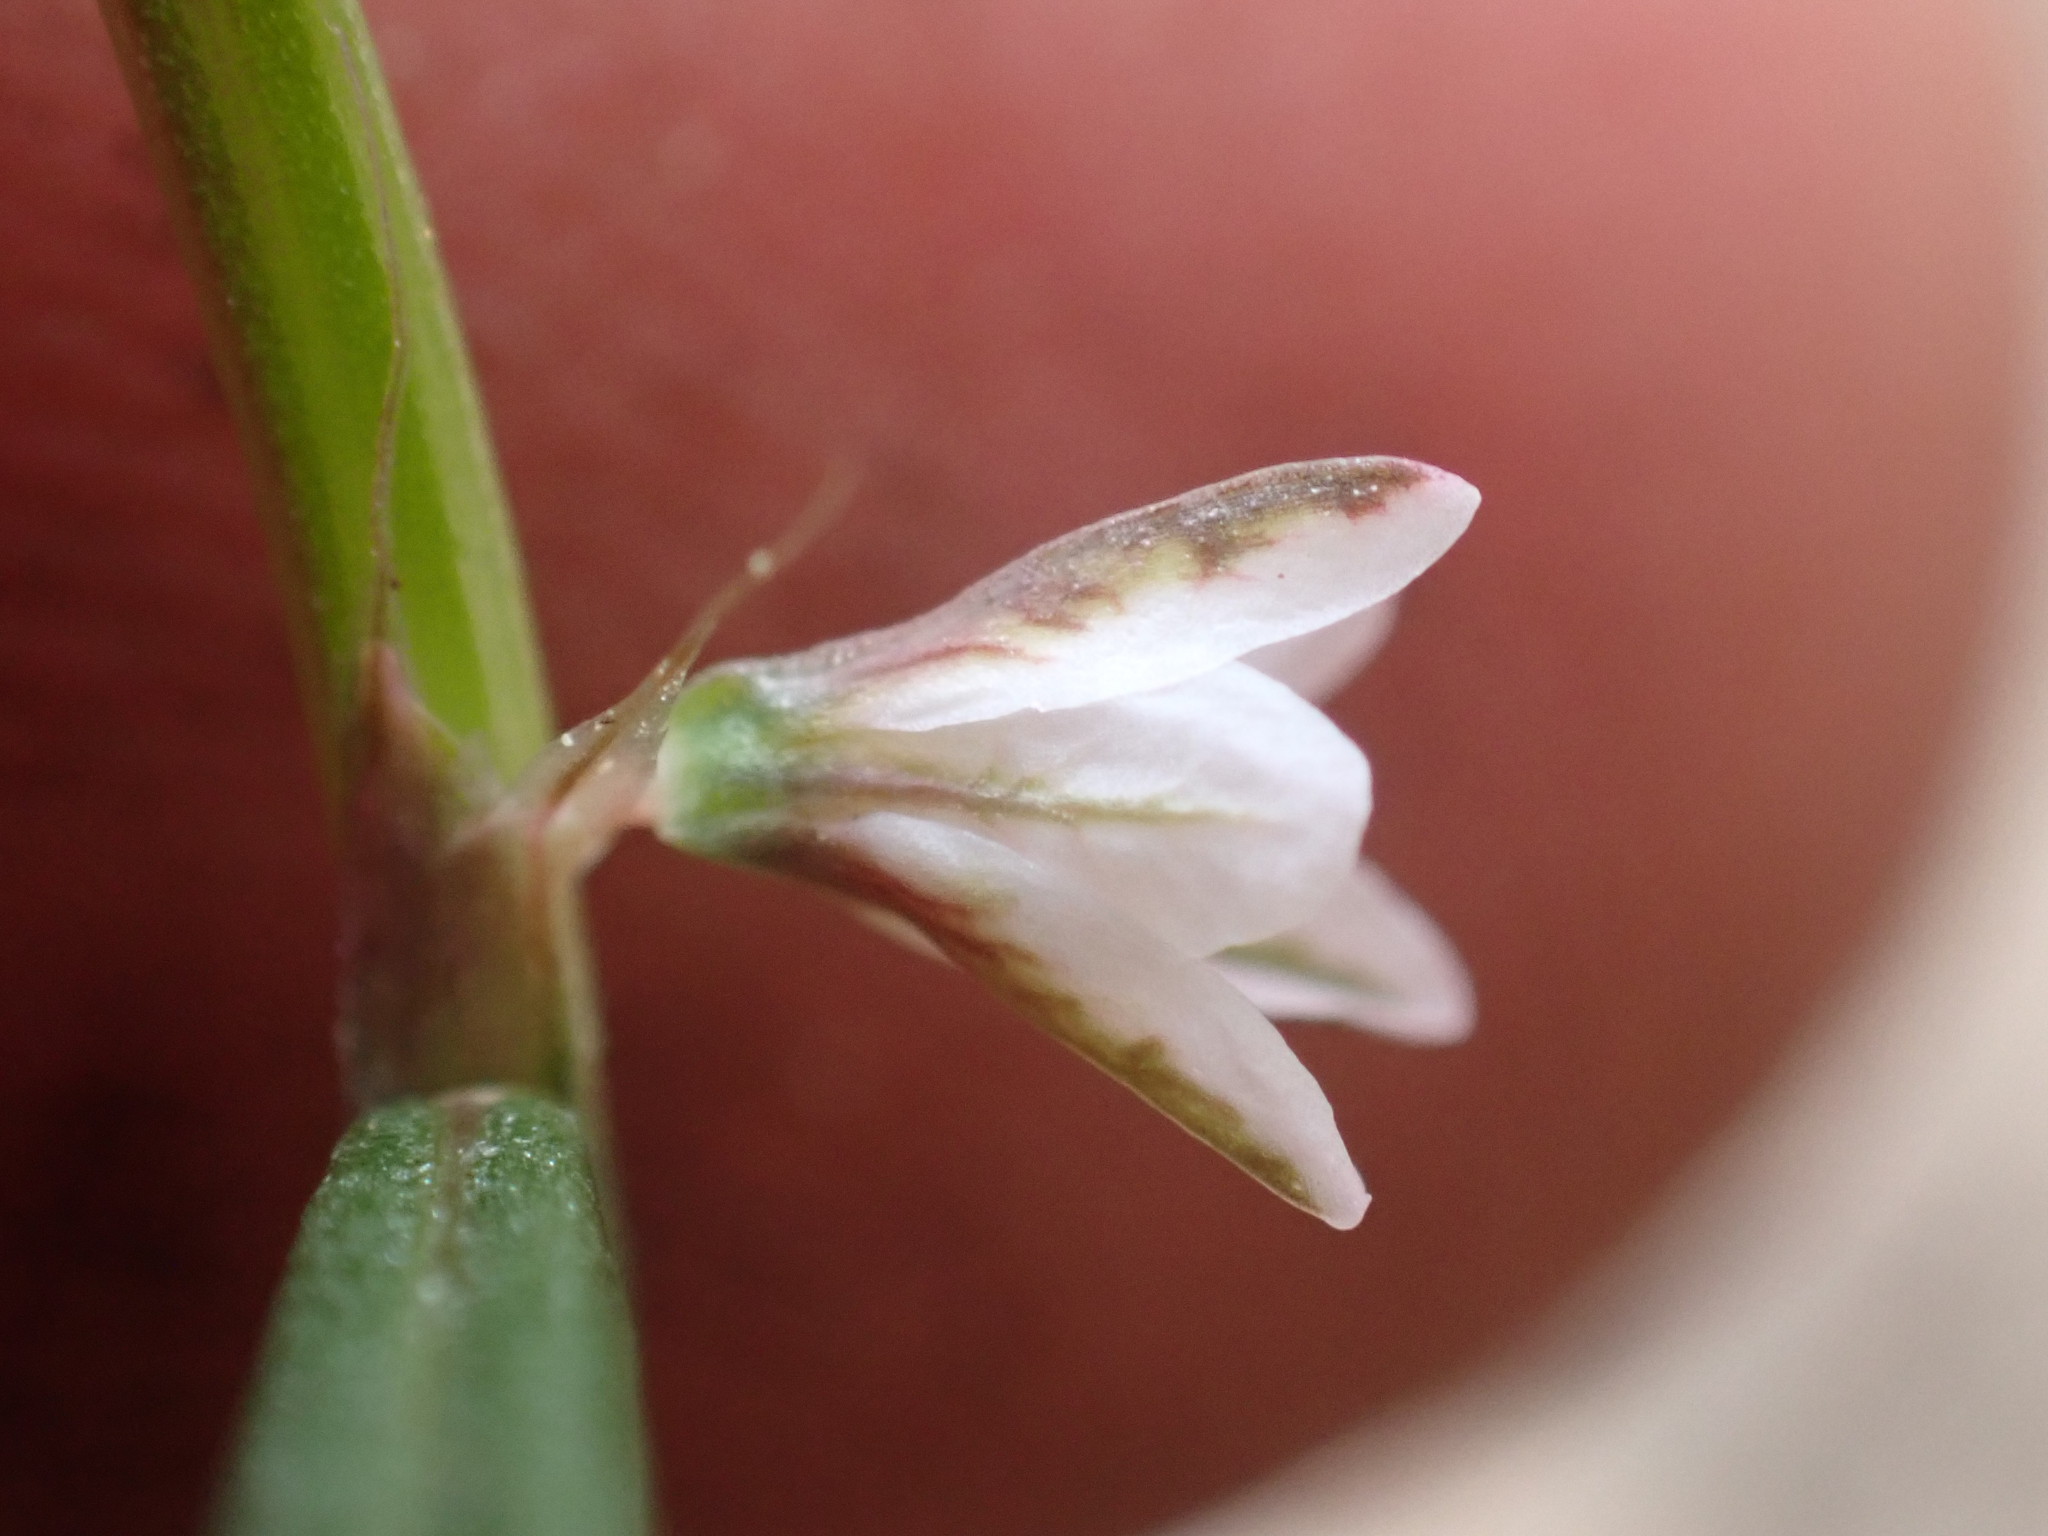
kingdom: Plantae
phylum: Tracheophyta
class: Magnoliopsida
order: Caryophyllales
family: Polygonaceae
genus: Polygonum
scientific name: Polygonum douglasii
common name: Douglas' knotweed
